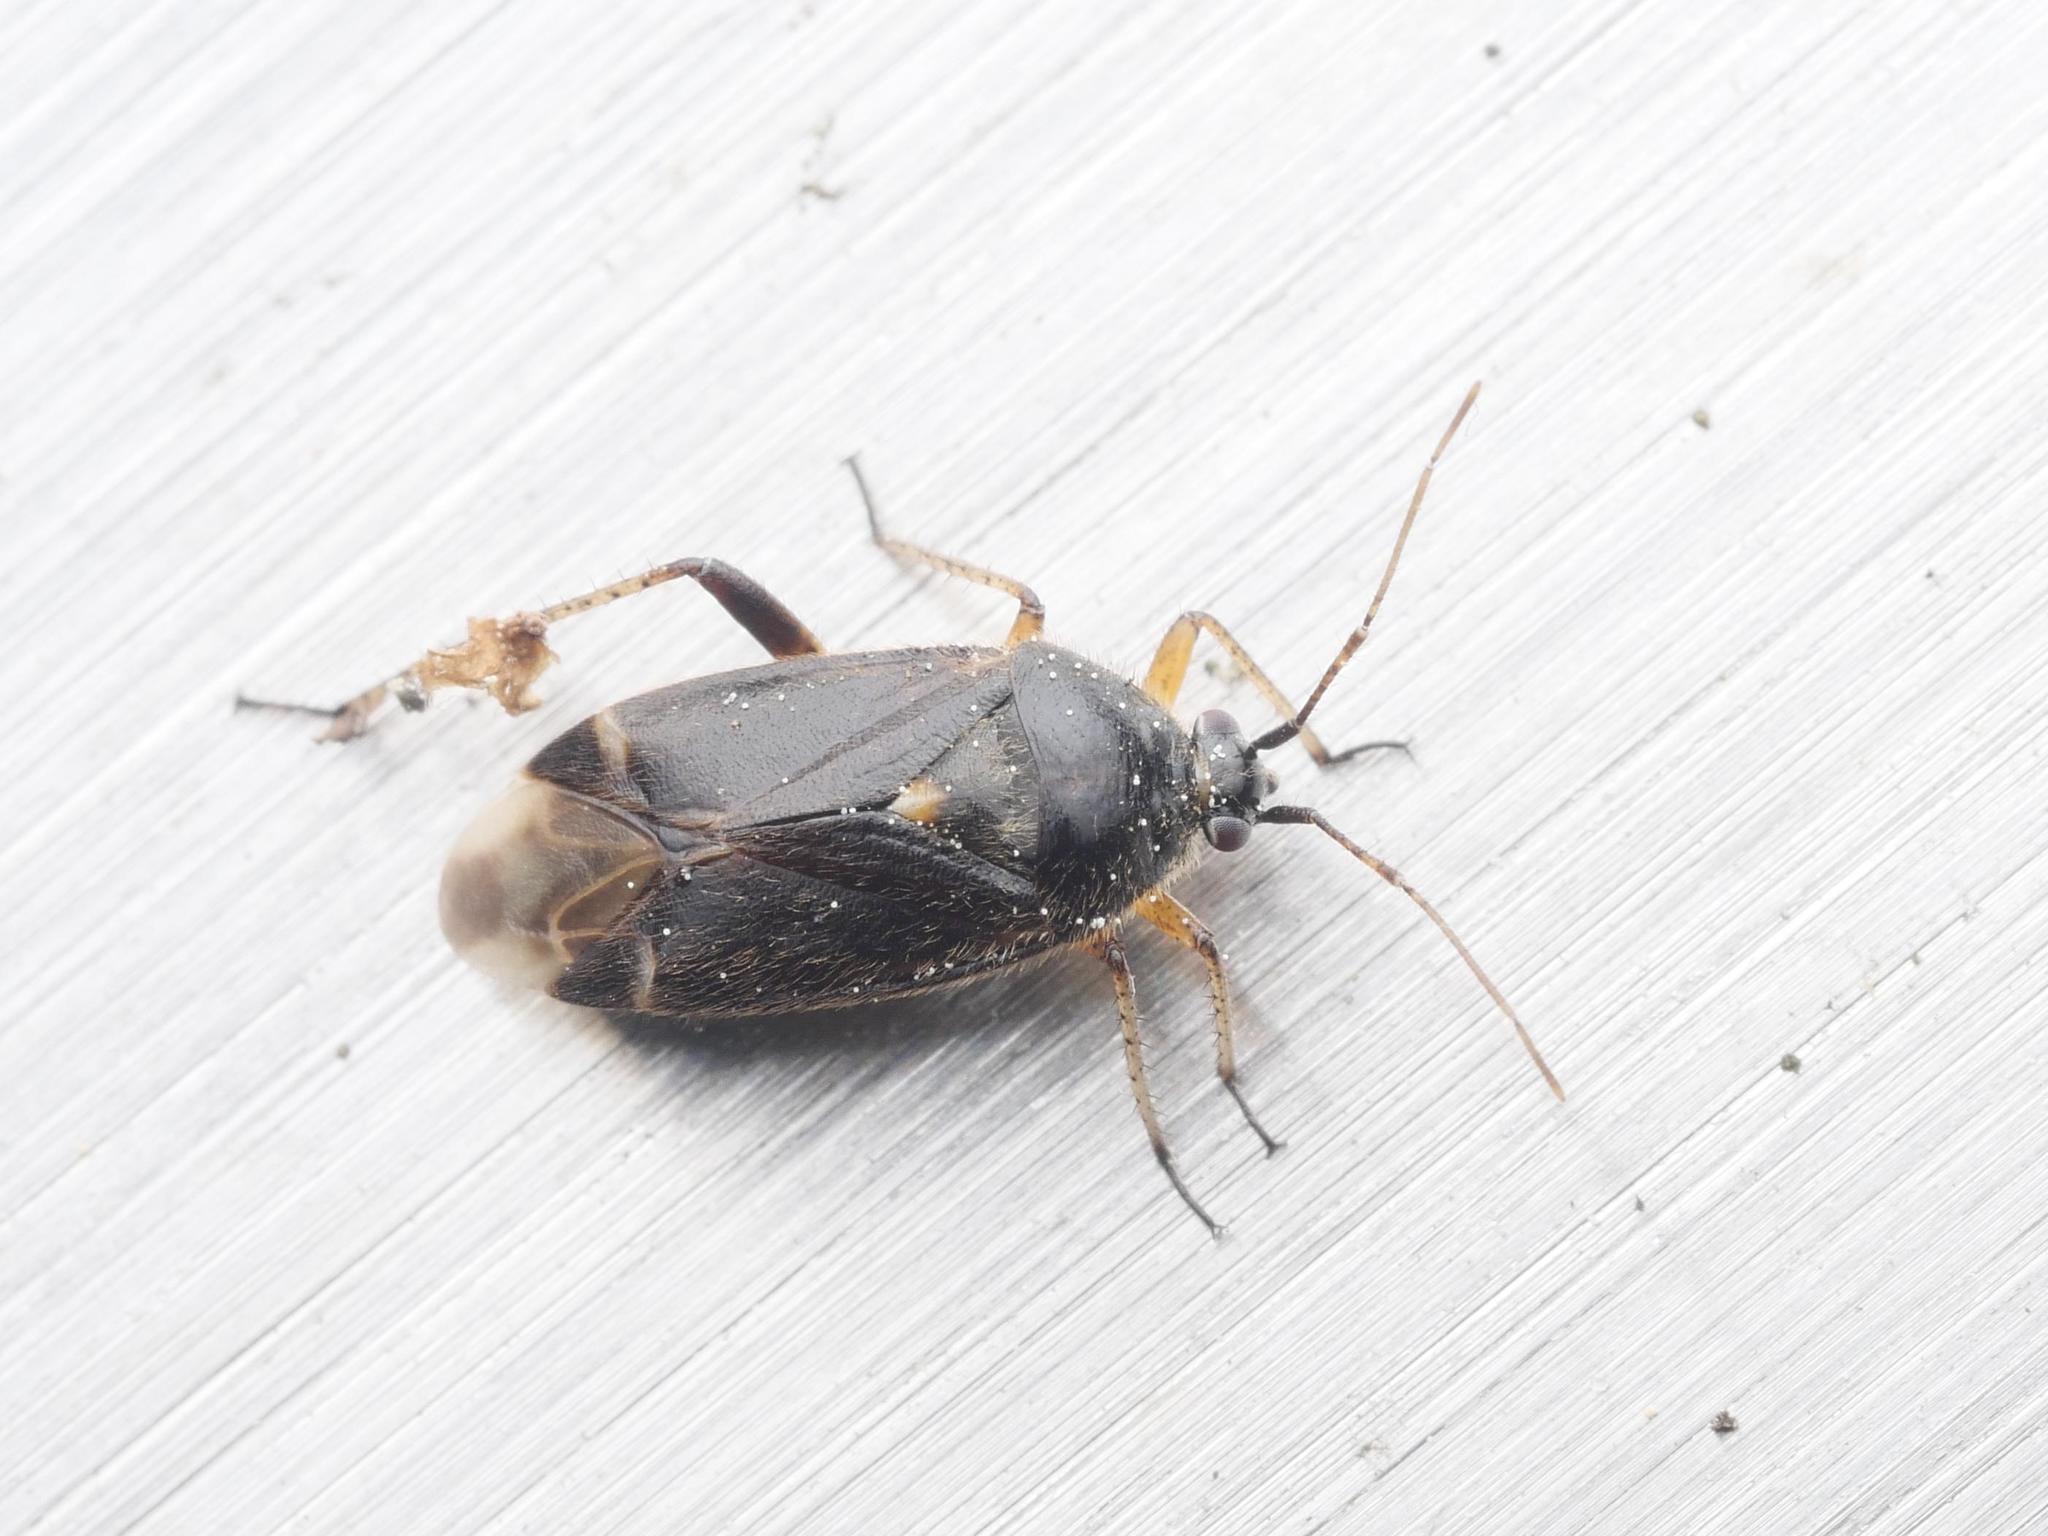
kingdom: Animalia
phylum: Arthropoda
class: Insecta
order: Hemiptera
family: Miridae
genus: Harpocera
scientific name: Harpocera thoracica
